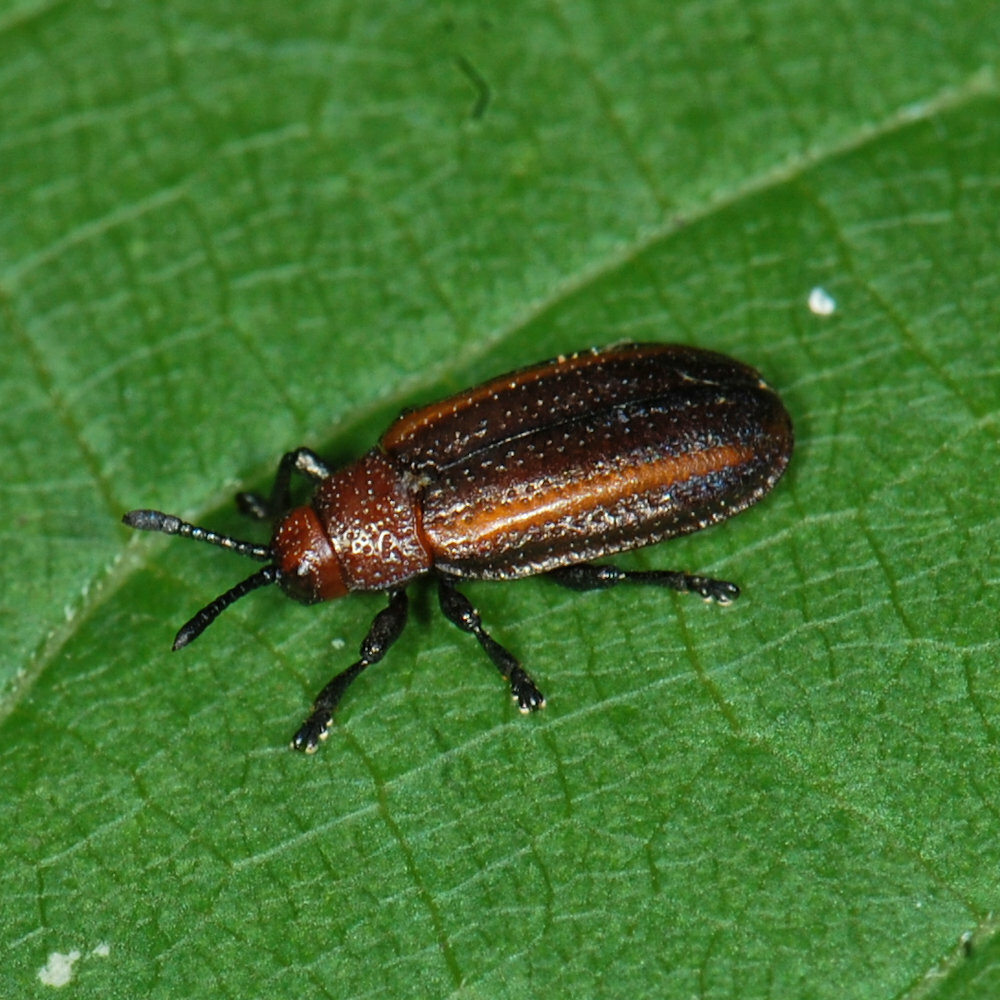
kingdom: Animalia
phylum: Arthropoda
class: Insecta
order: Coleoptera
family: Chrysomelidae
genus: Microrhopala
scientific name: Microrhopala vittata
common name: Goldenrod leaf miner beetle
